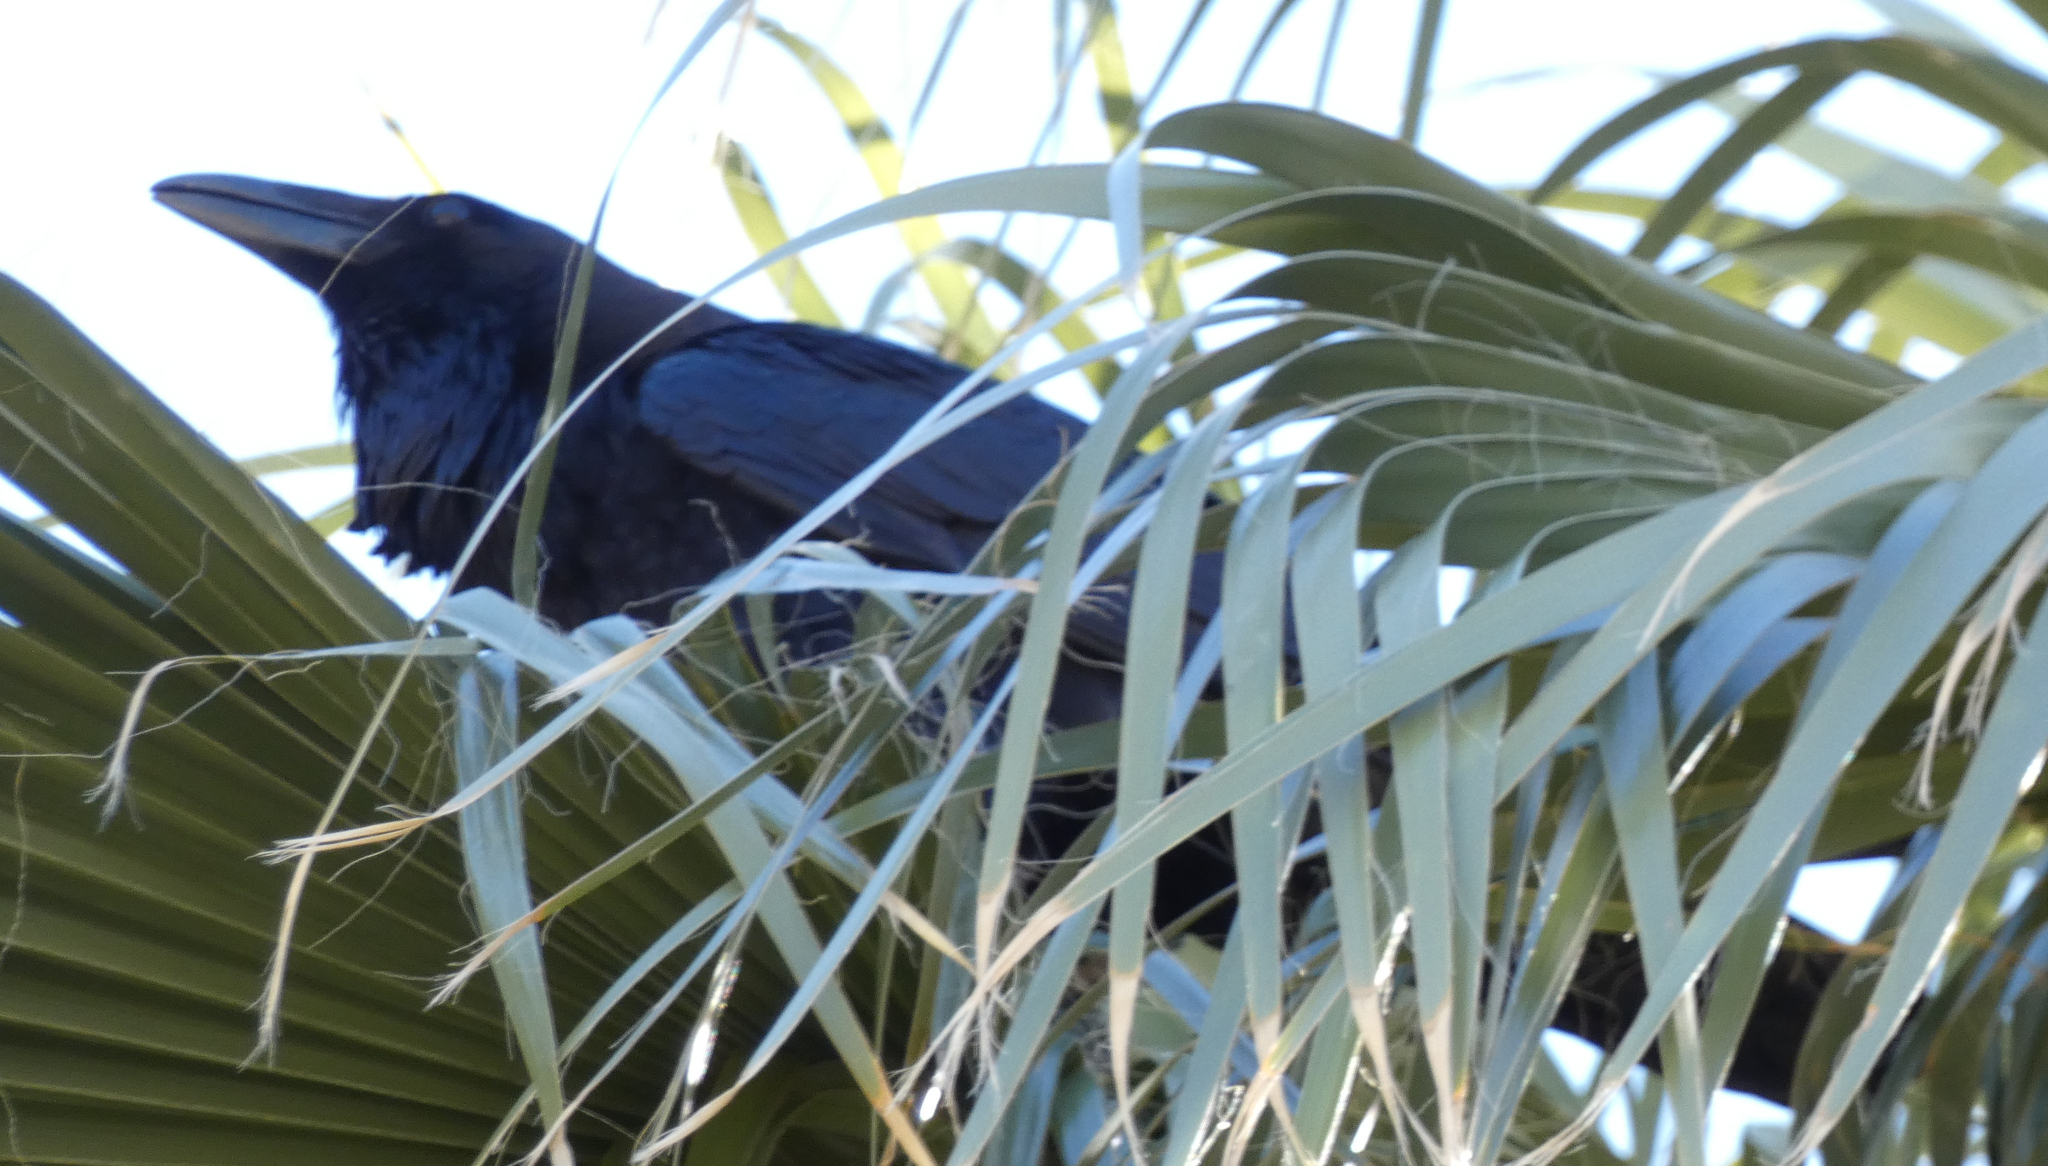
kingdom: Animalia
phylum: Chordata
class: Aves
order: Passeriformes
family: Corvidae
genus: Corvus
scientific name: Corvus corax
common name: Common raven
